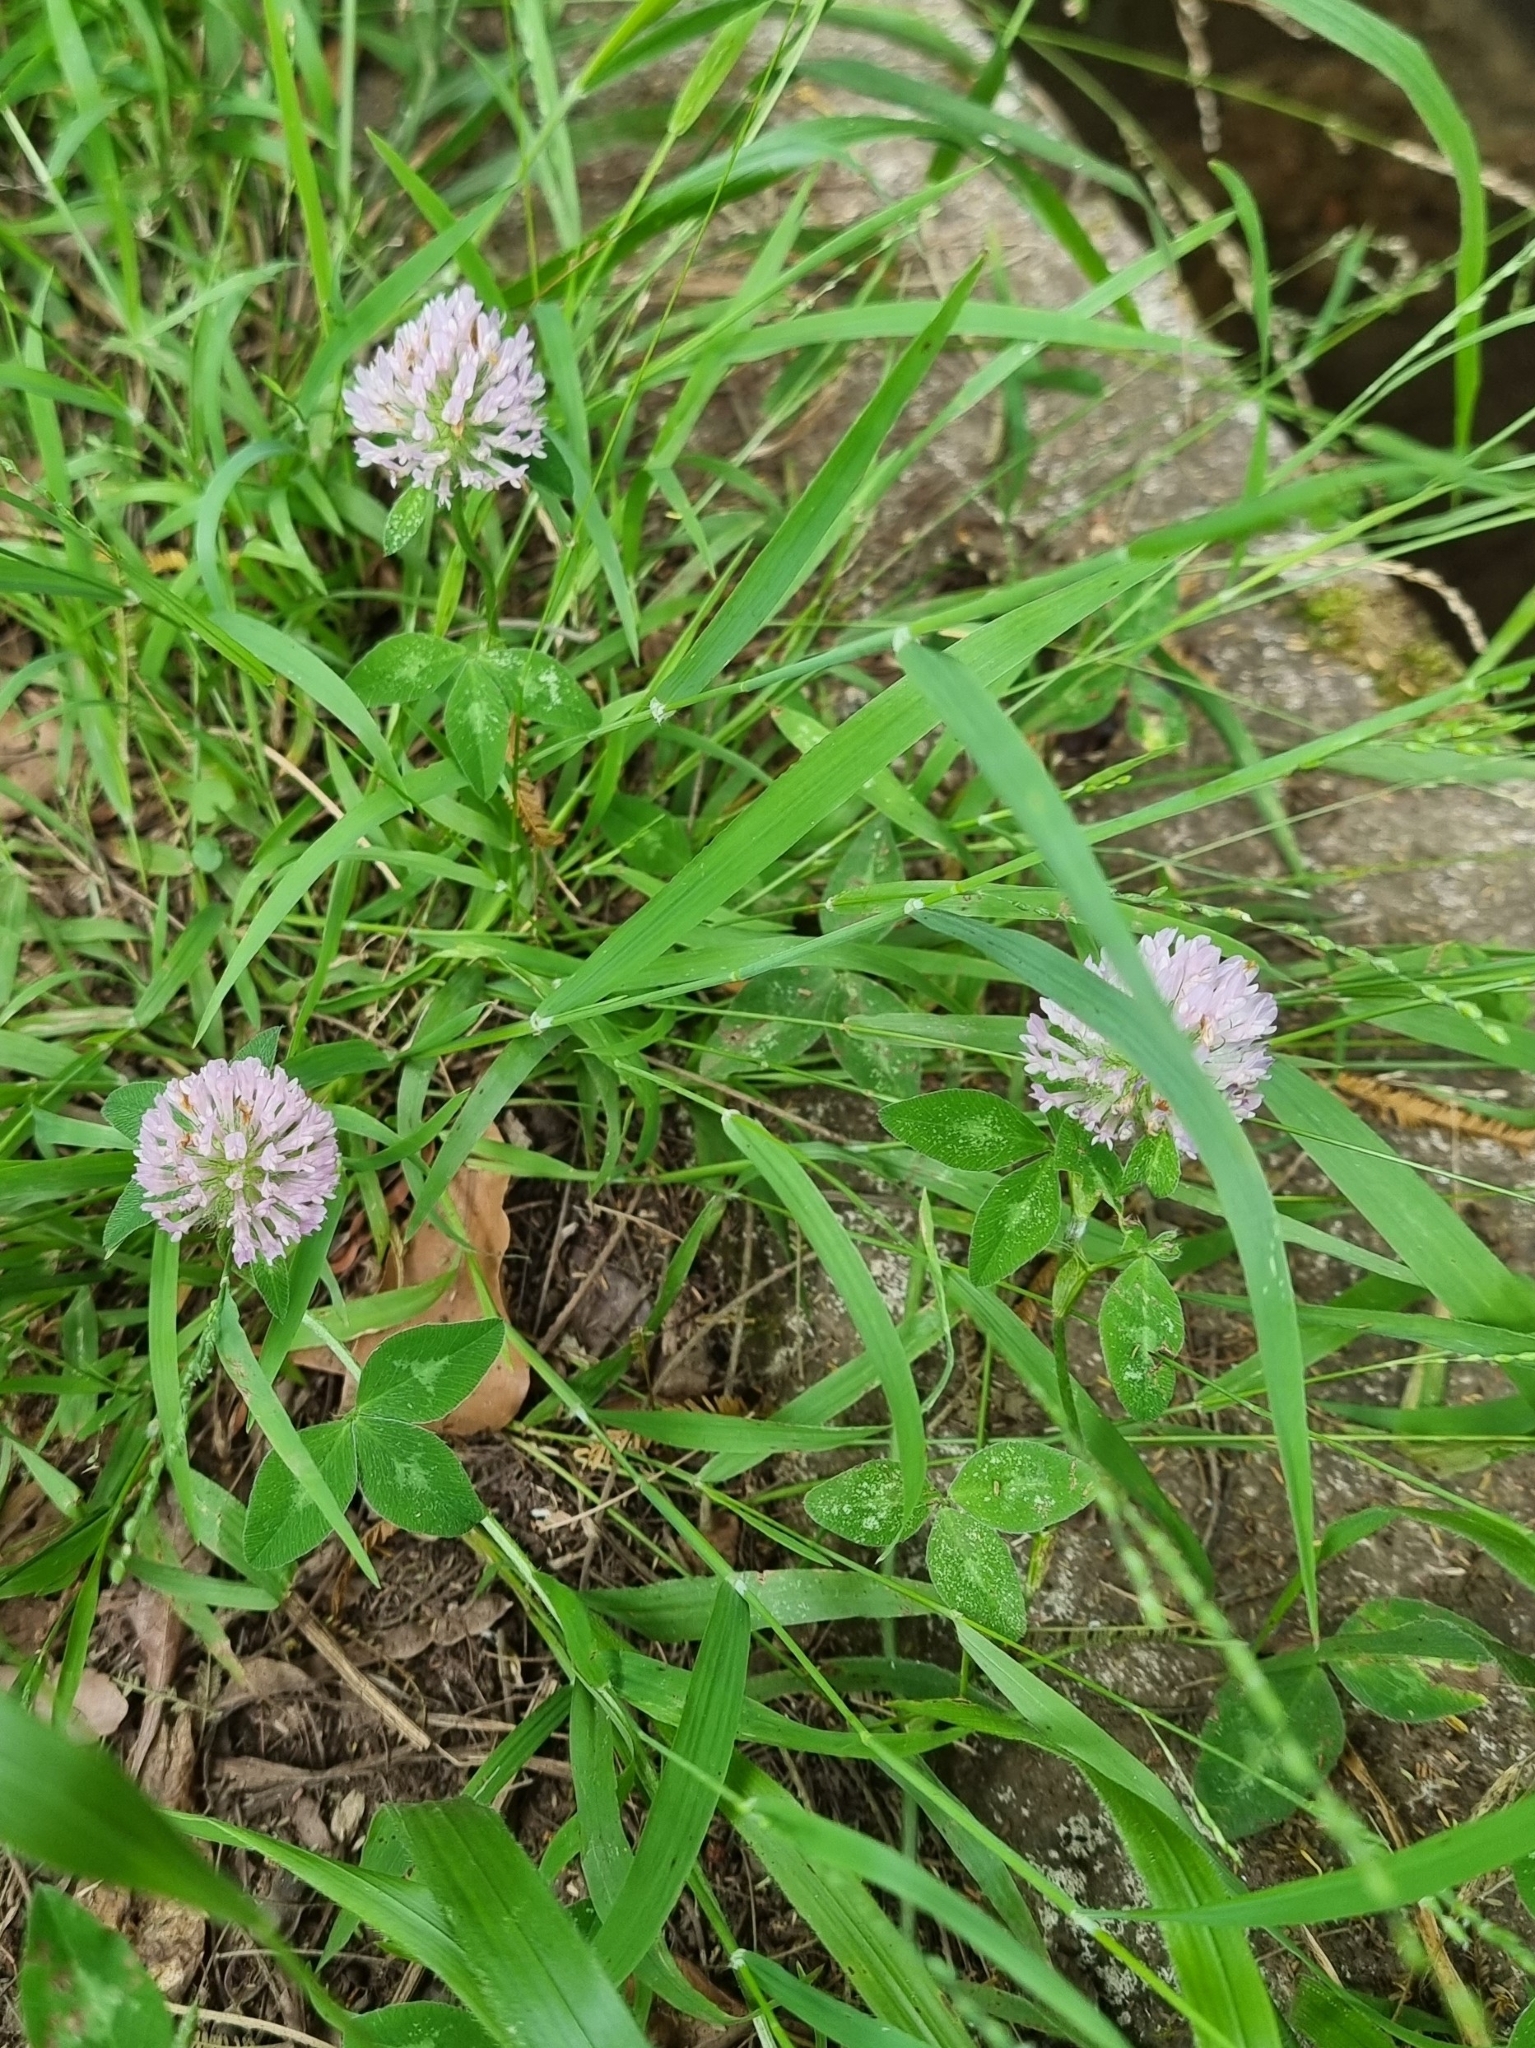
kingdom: Plantae
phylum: Tracheophyta
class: Magnoliopsida
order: Fabales
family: Fabaceae
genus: Trifolium
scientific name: Trifolium pratense
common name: Red clover
